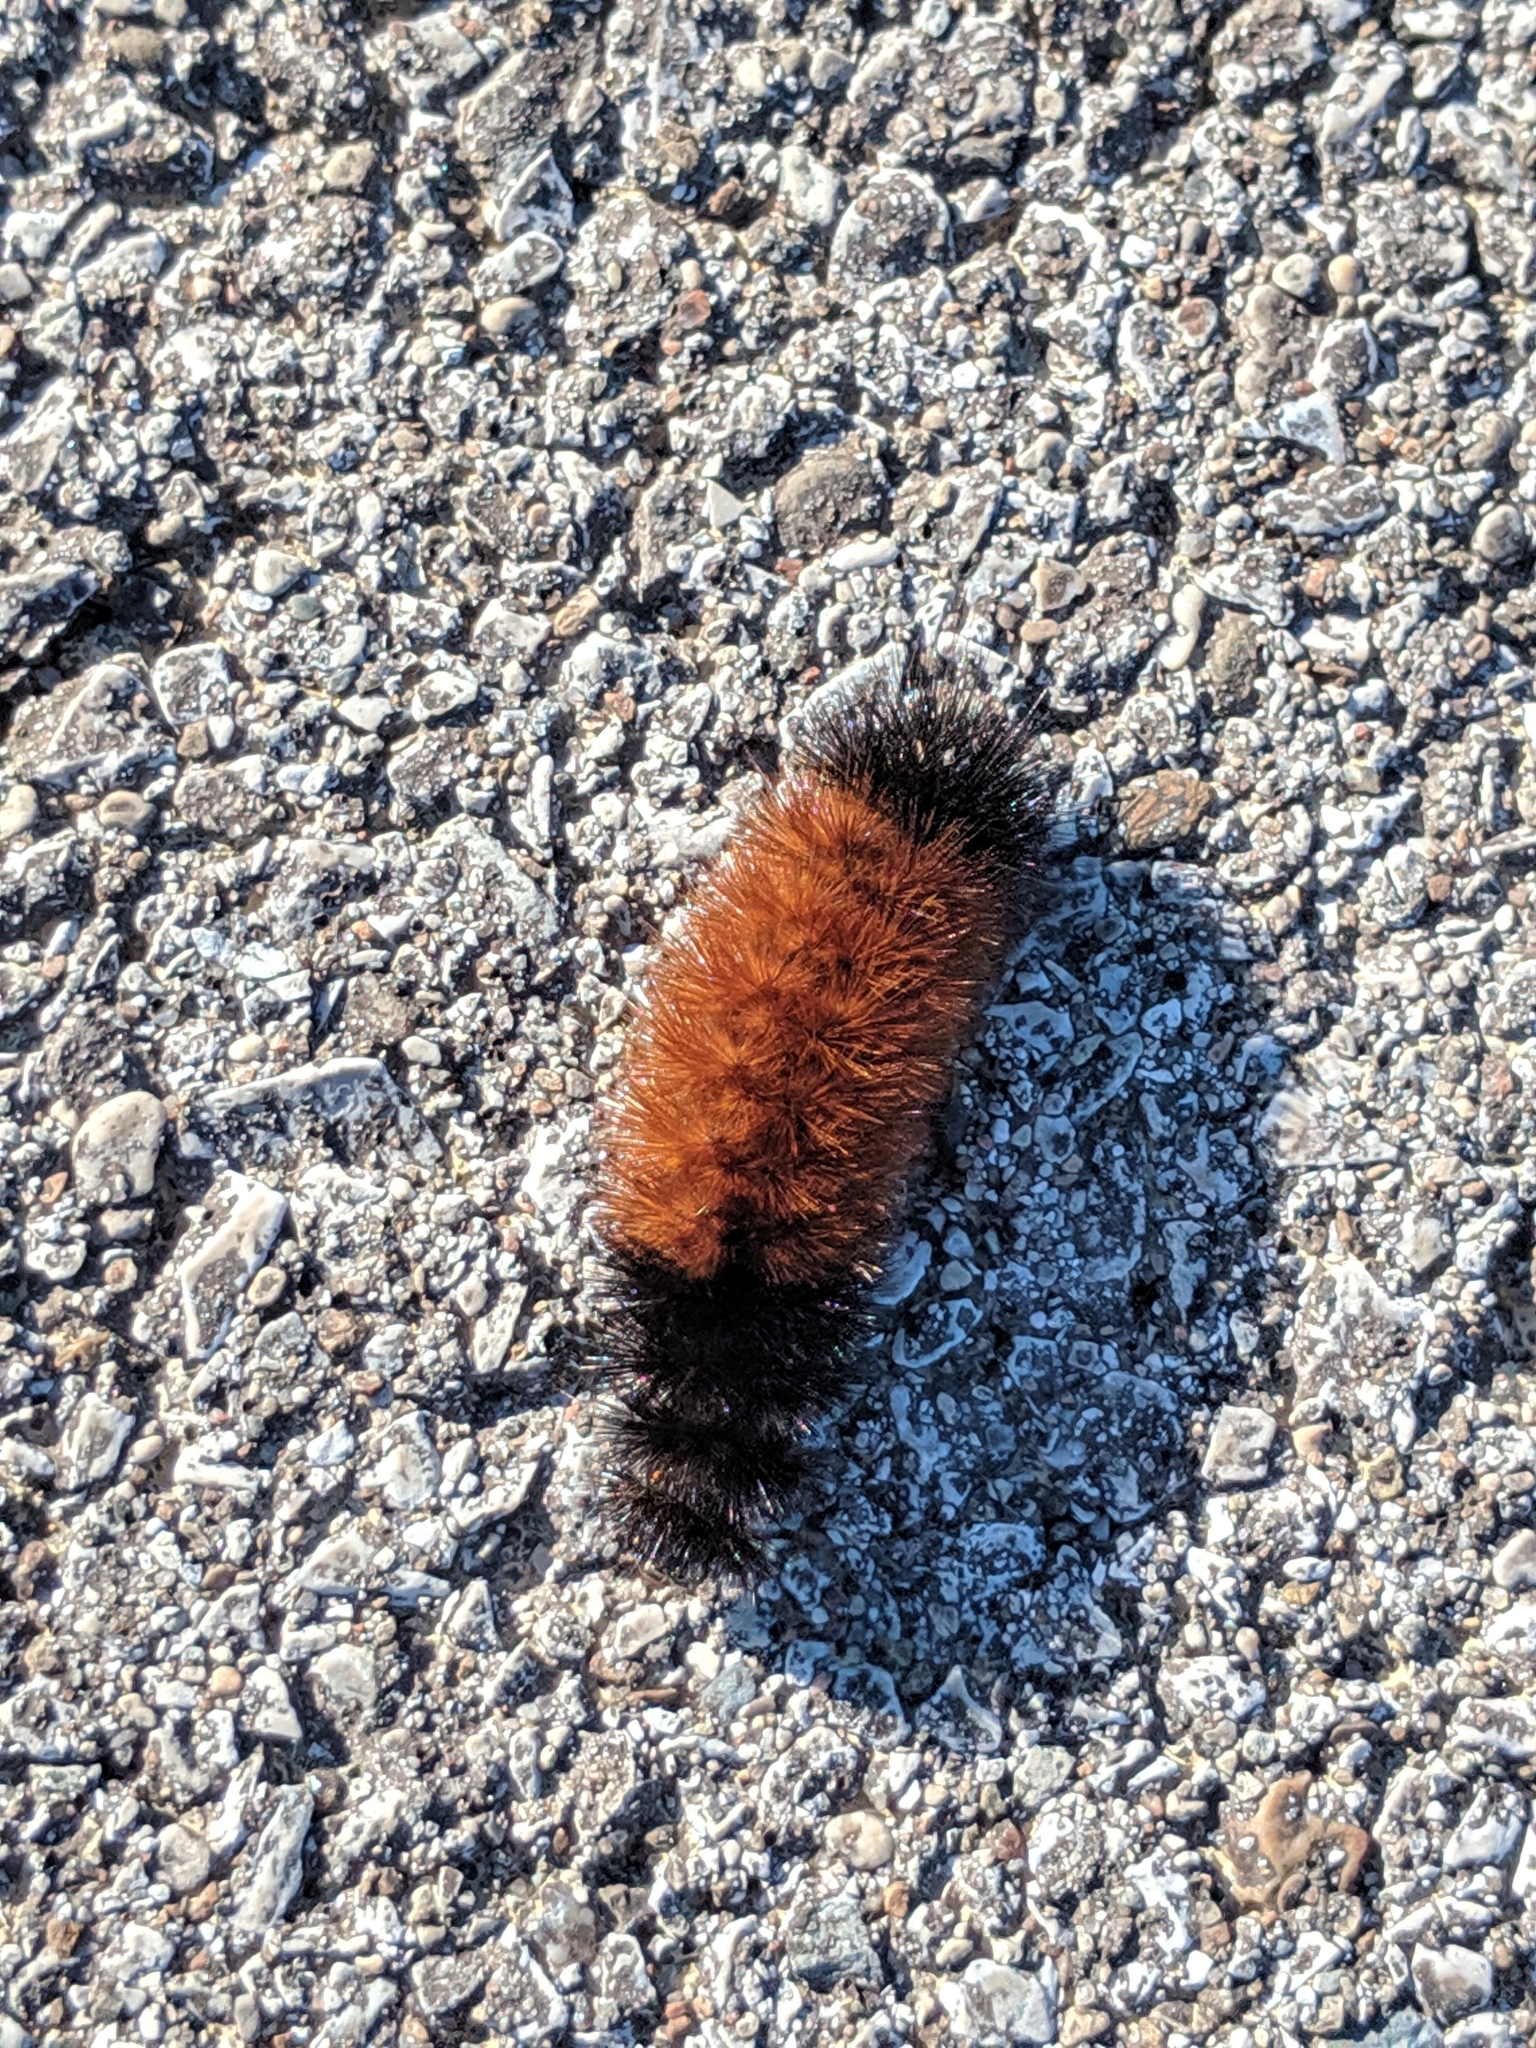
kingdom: Animalia
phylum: Arthropoda
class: Insecta
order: Lepidoptera
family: Erebidae
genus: Pyrrharctia
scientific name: Pyrrharctia isabella
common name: Isabella tiger moth
